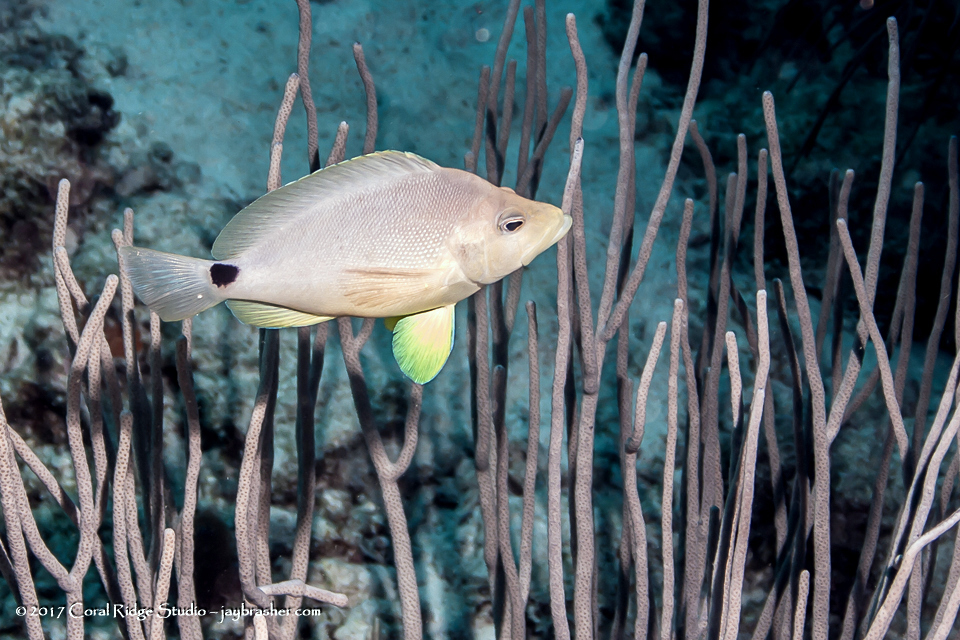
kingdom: Animalia
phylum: Chordata
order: Perciformes
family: Serranidae
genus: Hypoplectrus
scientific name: Hypoplectrus unicolor
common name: Butter hamlet
